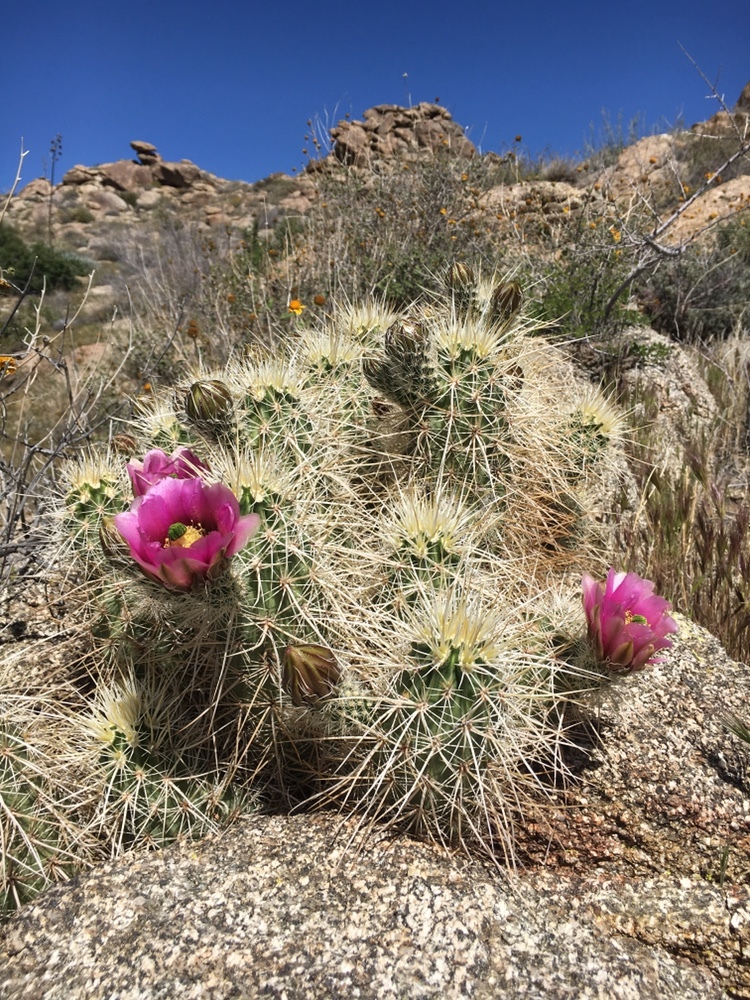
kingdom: Plantae
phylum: Tracheophyta
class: Magnoliopsida
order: Caryophyllales
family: Cactaceae
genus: Echinocereus
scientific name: Echinocereus engelmannii
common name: Engelmann's hedgehog cactus
